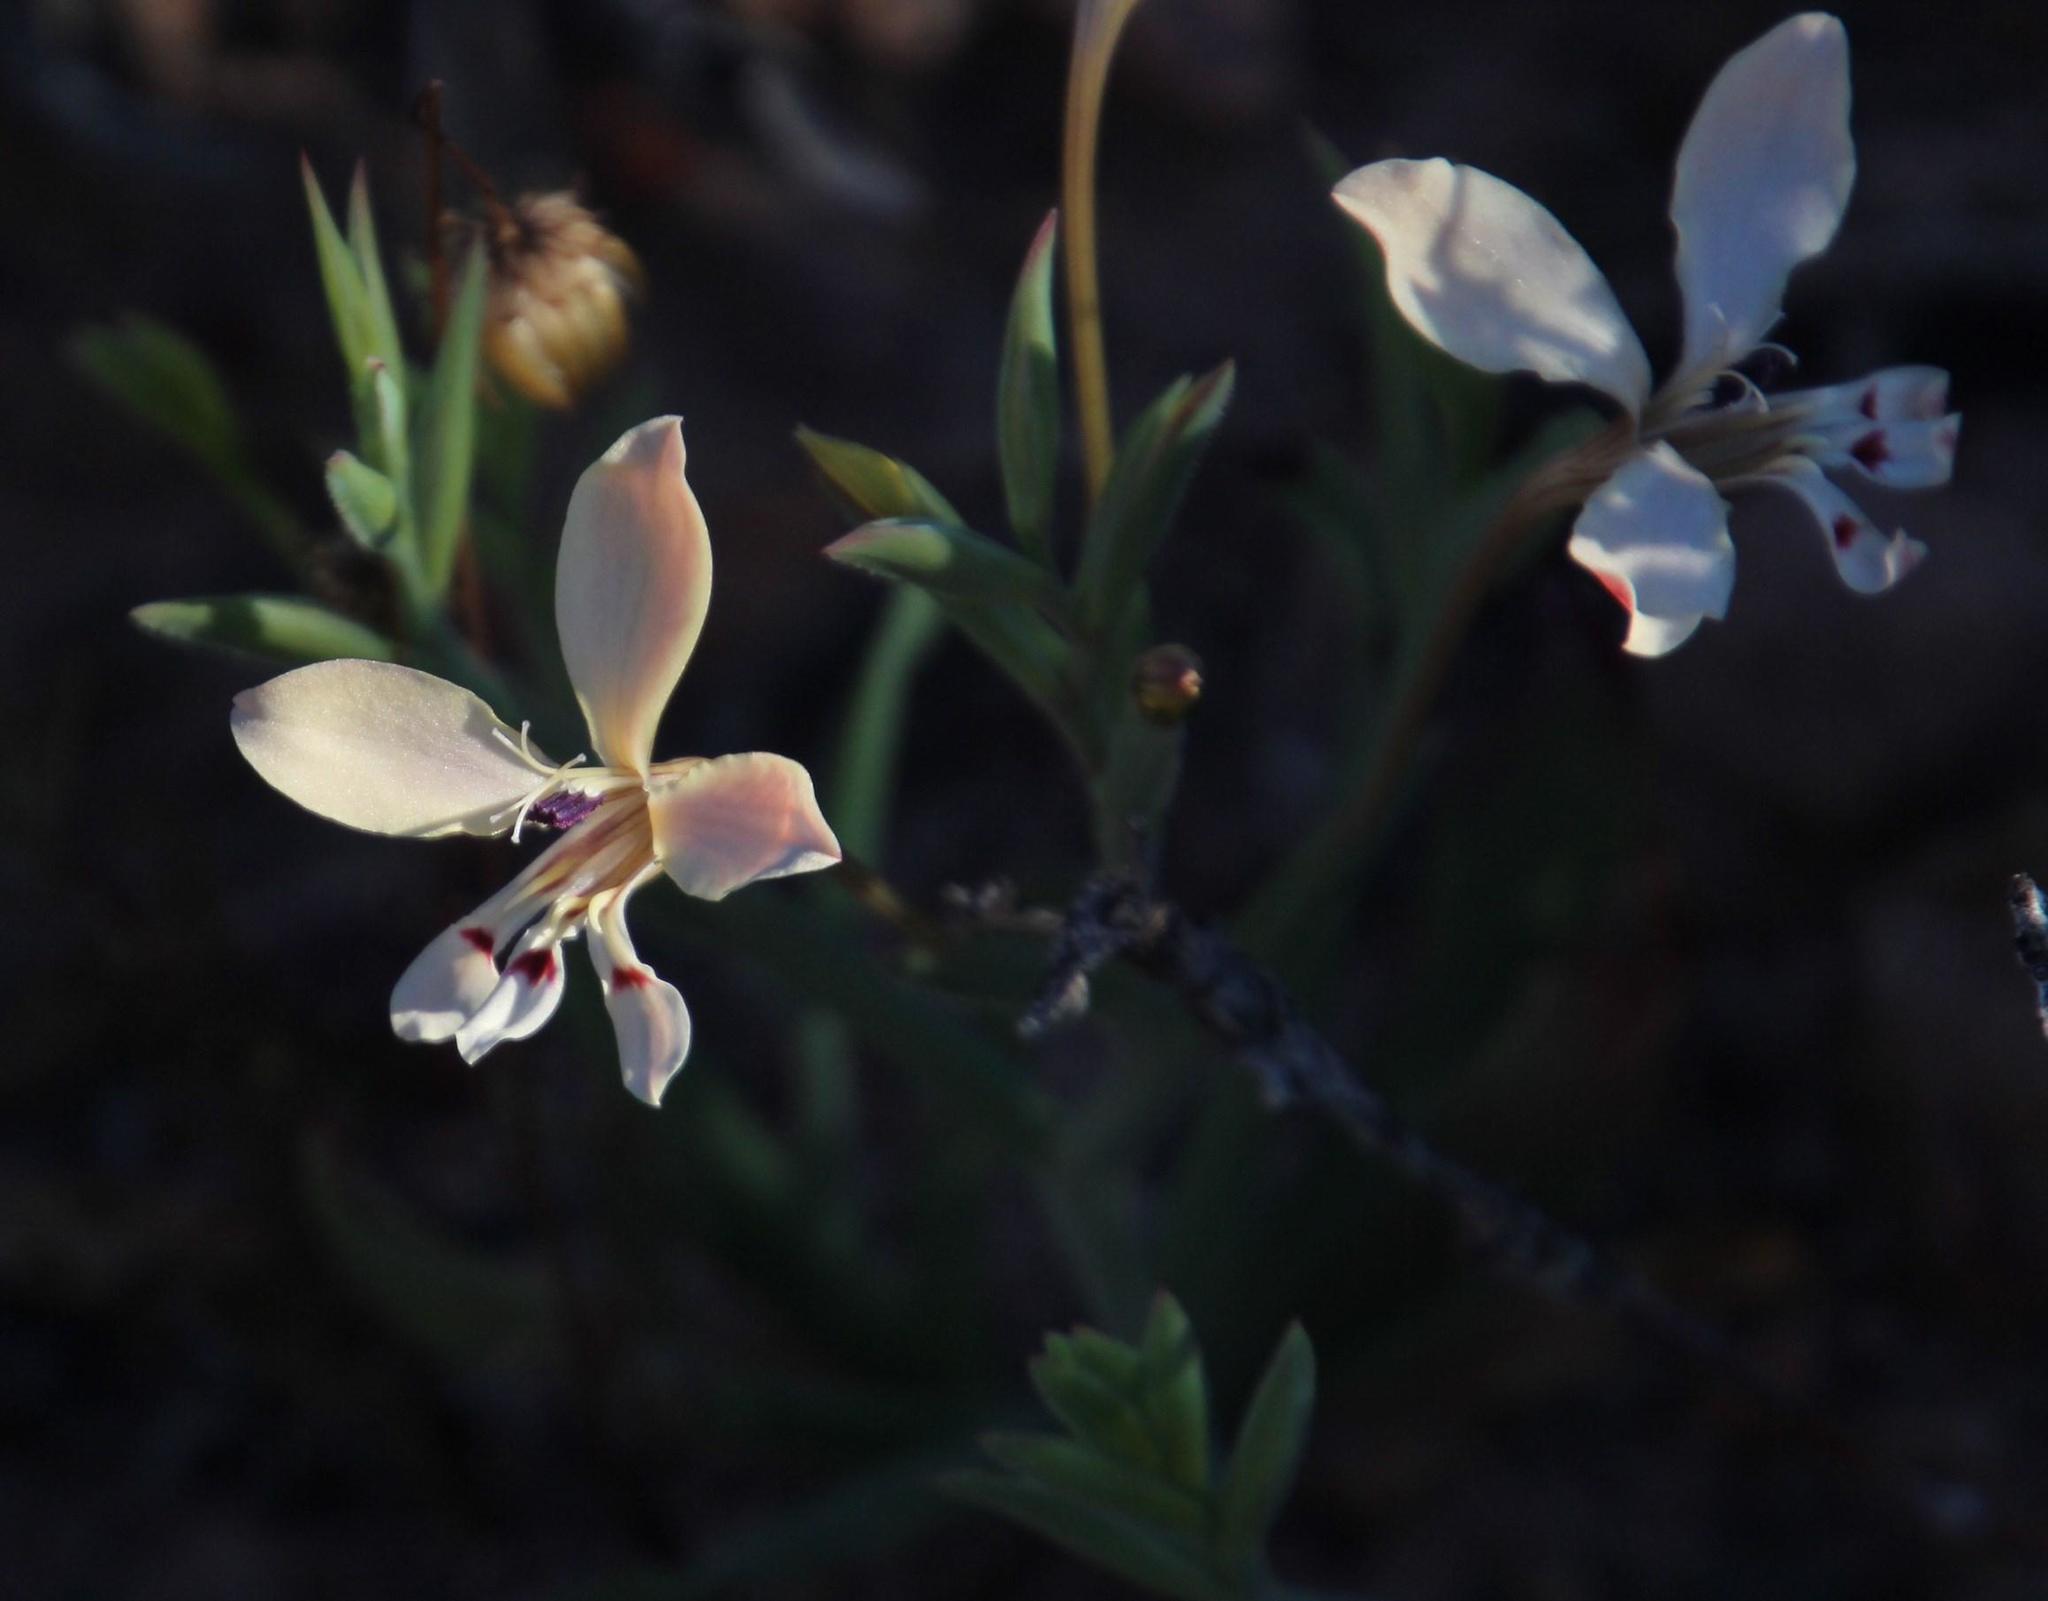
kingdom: Plantae
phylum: Tracheophyta
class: Liliopsida
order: Asparagales
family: Iridaceae
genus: Lapeirousia
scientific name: Lapeirousia fabricii
